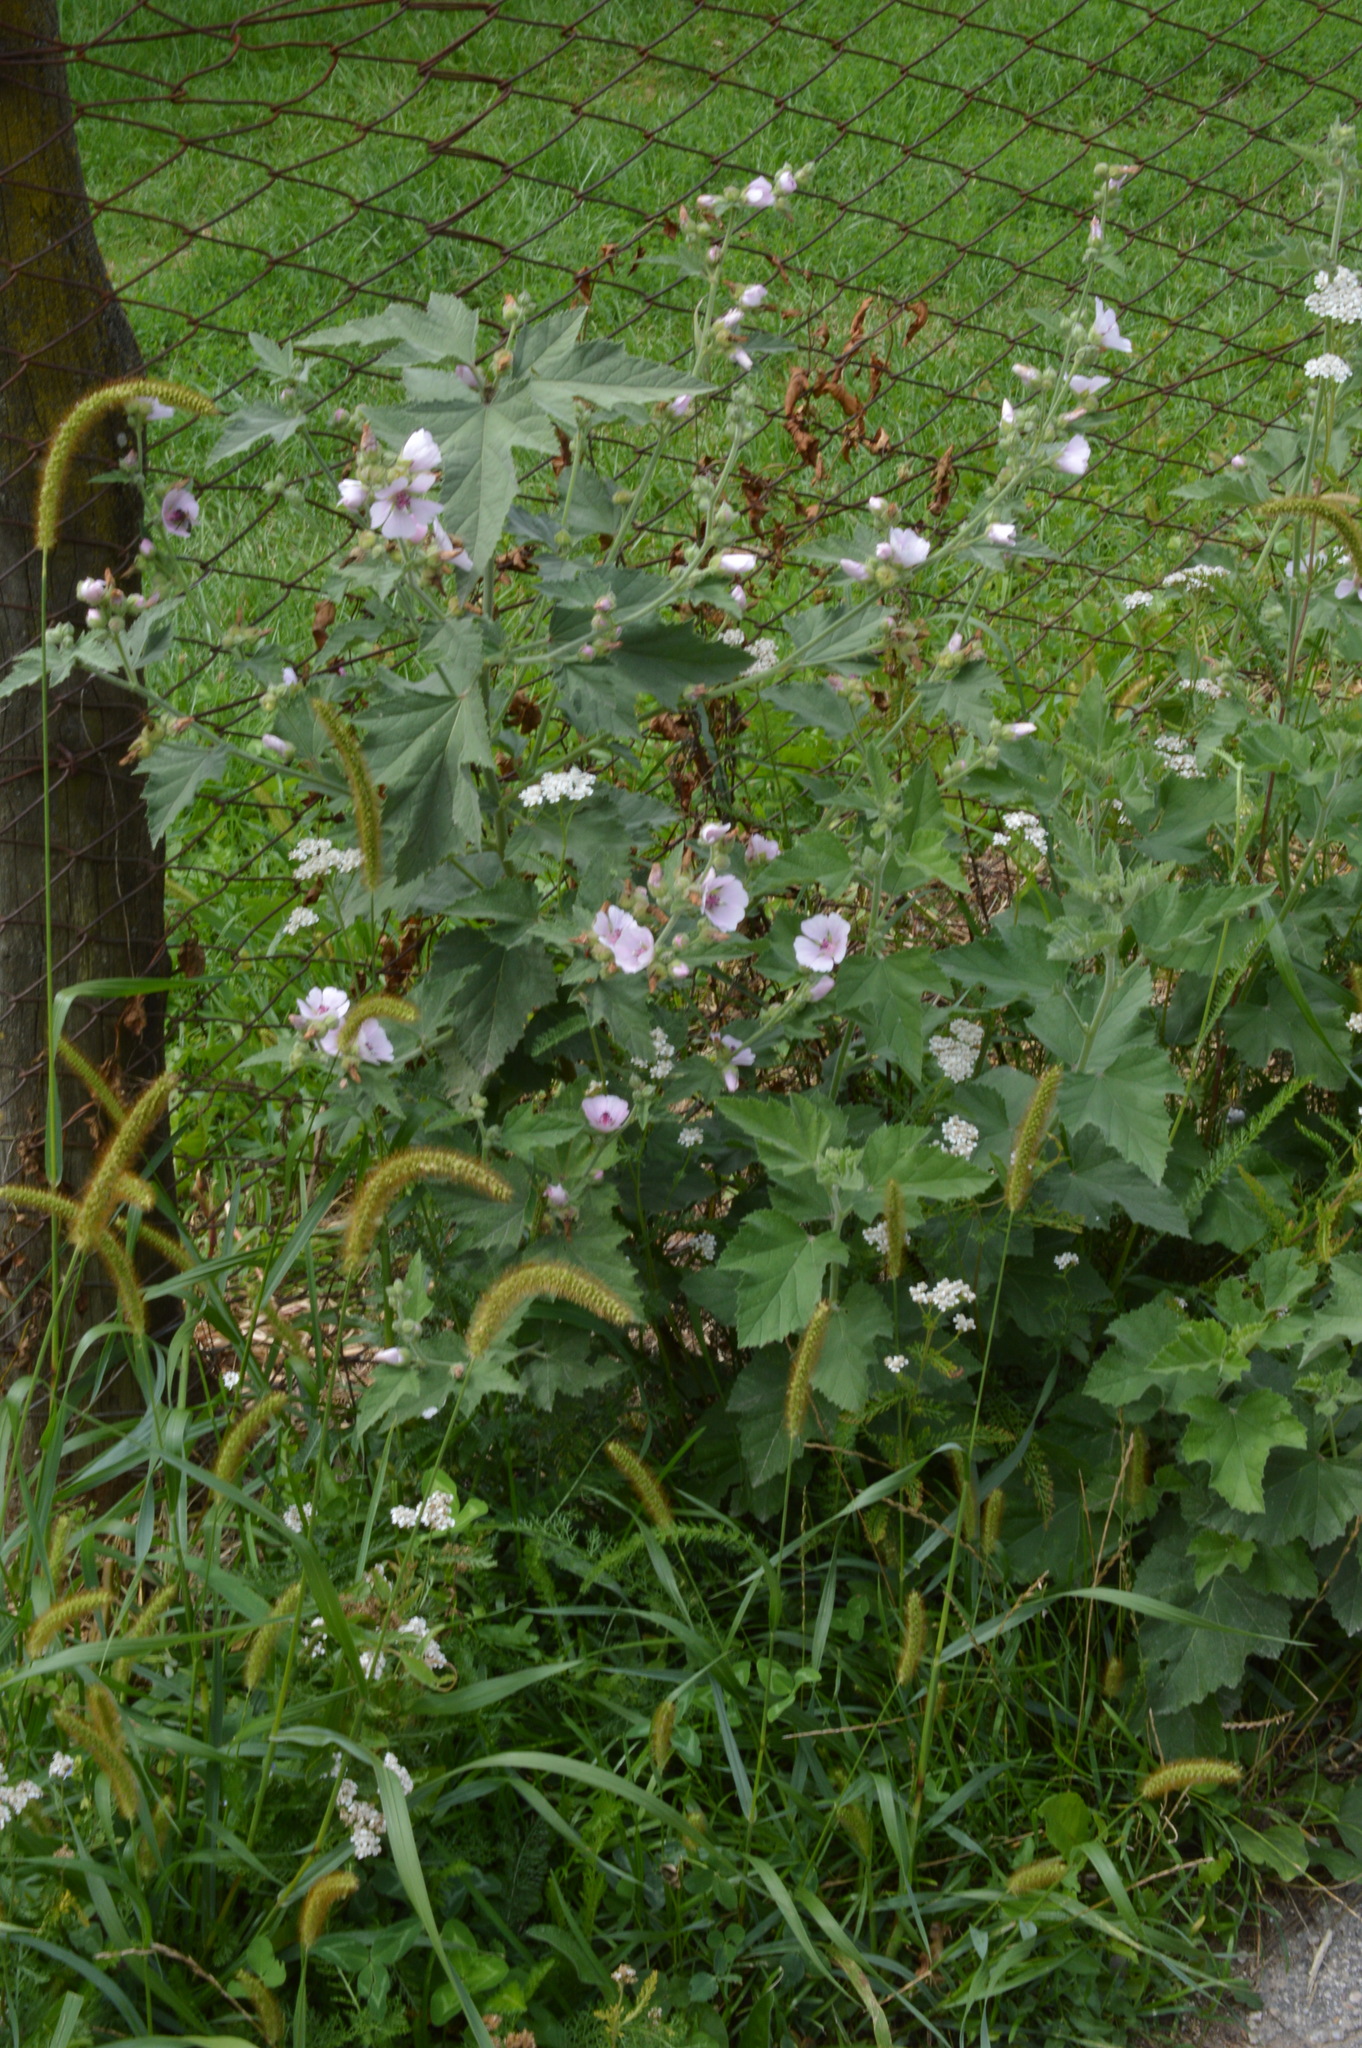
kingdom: Plantae
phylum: Tracheophyta
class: Magnoliopsida
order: Malvales
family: Malvaceae
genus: Althaea
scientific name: Althaea officinalis
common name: Marsh-mallow
